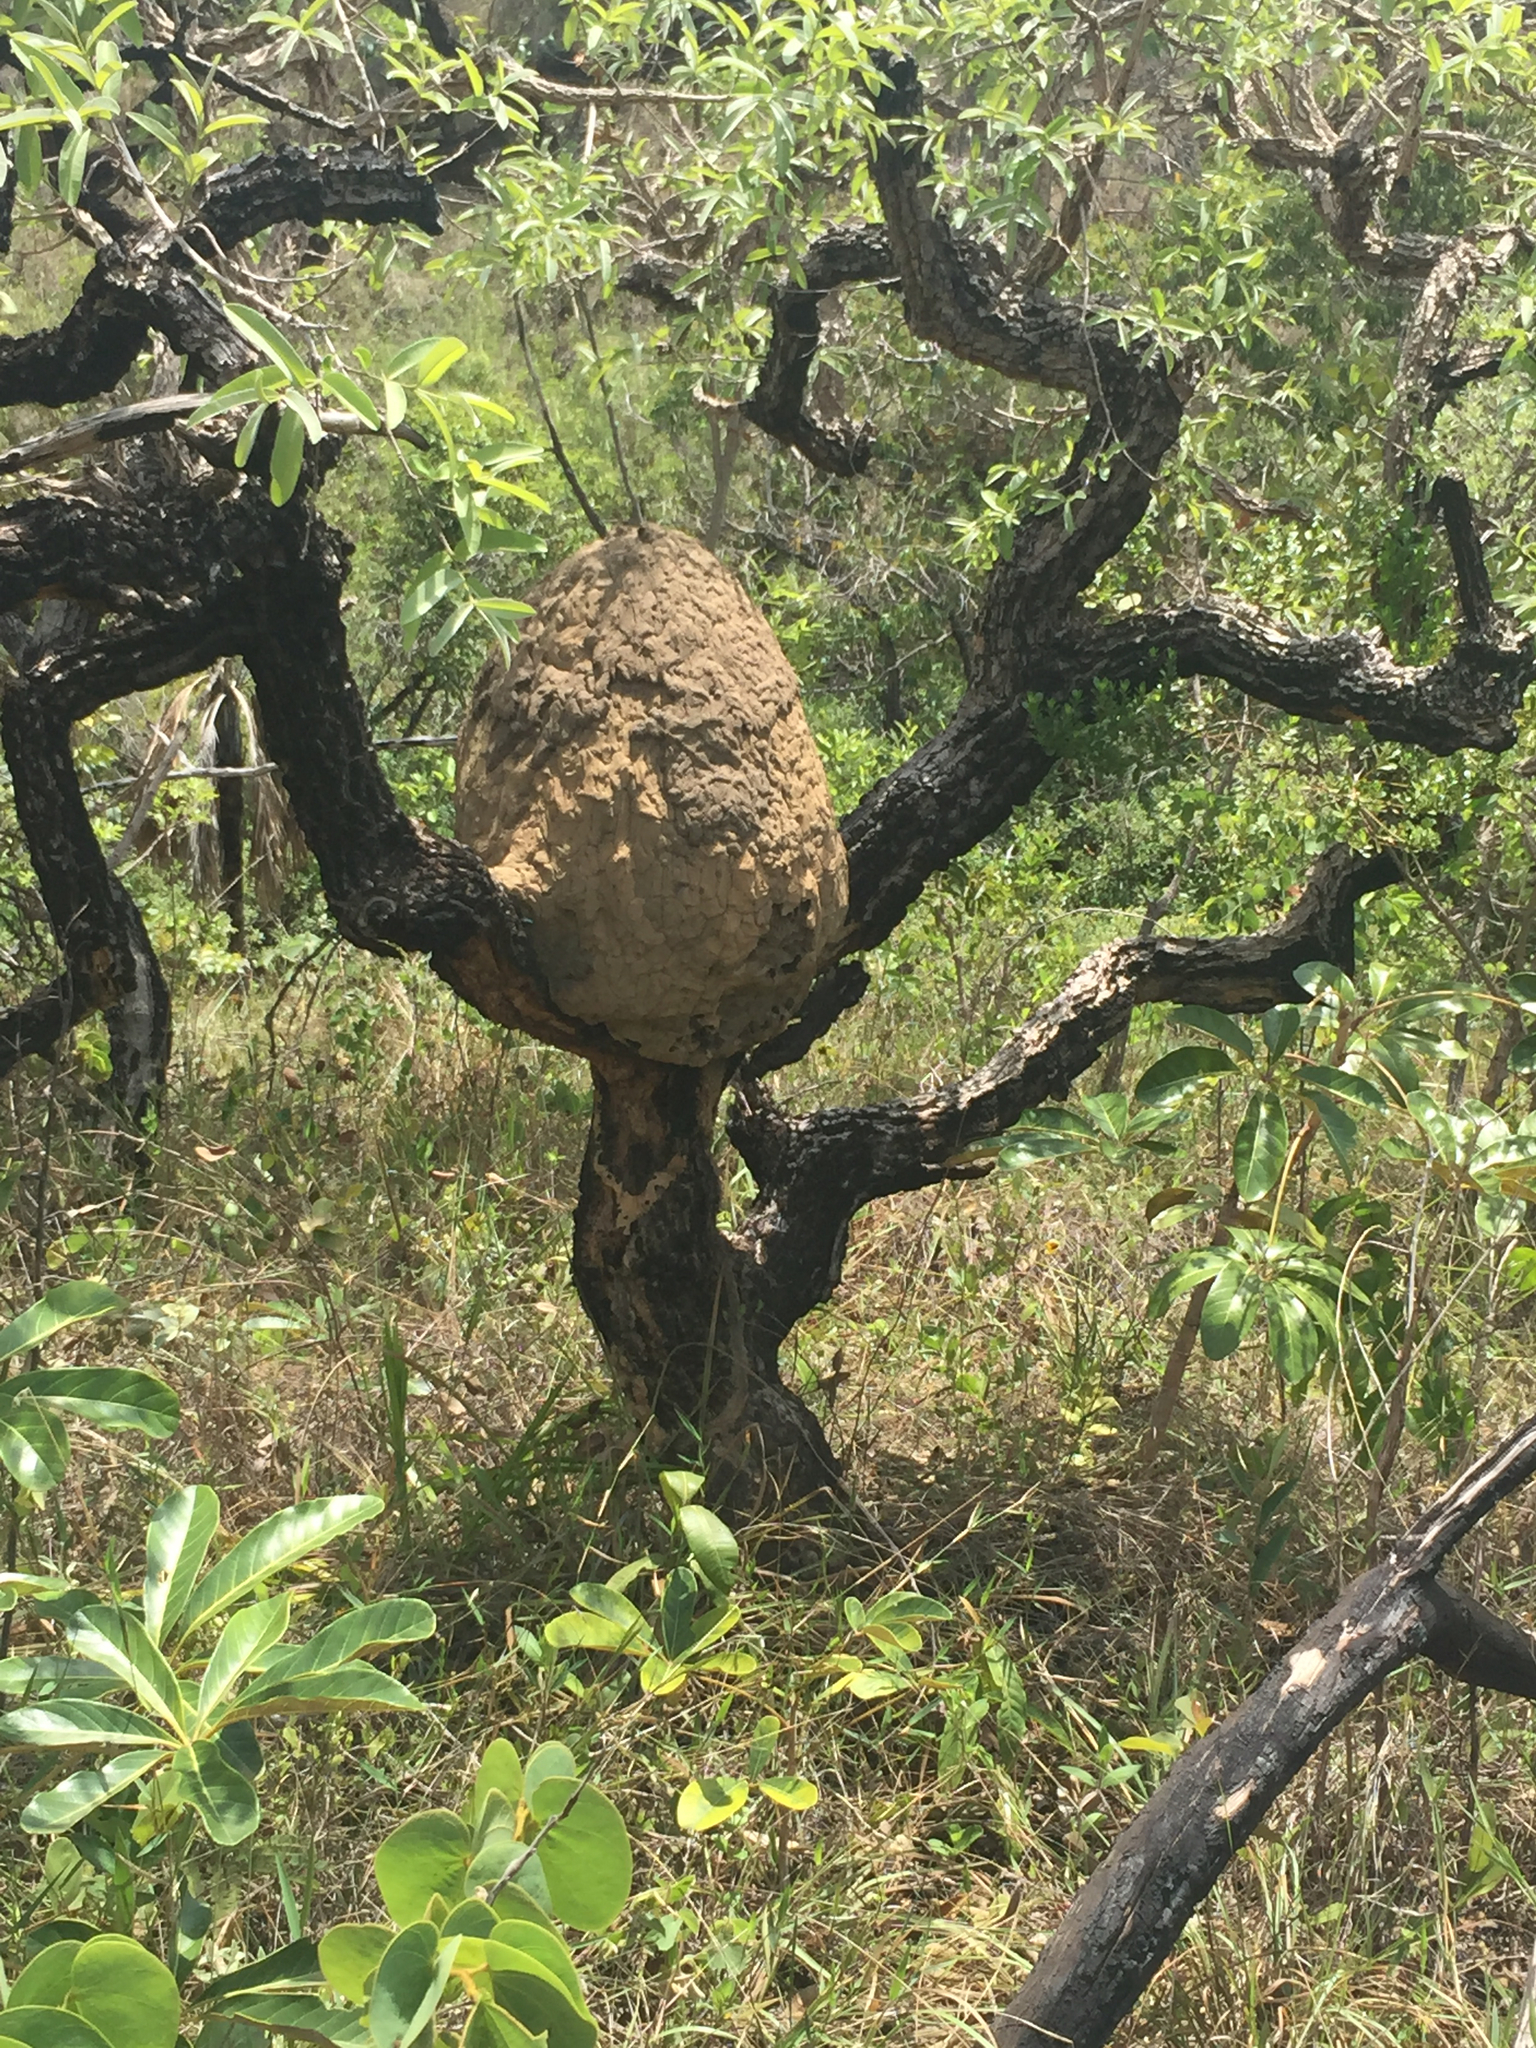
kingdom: Animalia
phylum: Arthropoda
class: Insecta
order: Blattodea
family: Termitidae
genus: Constrictotermes
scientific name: Constrictotermes cyphergaster
